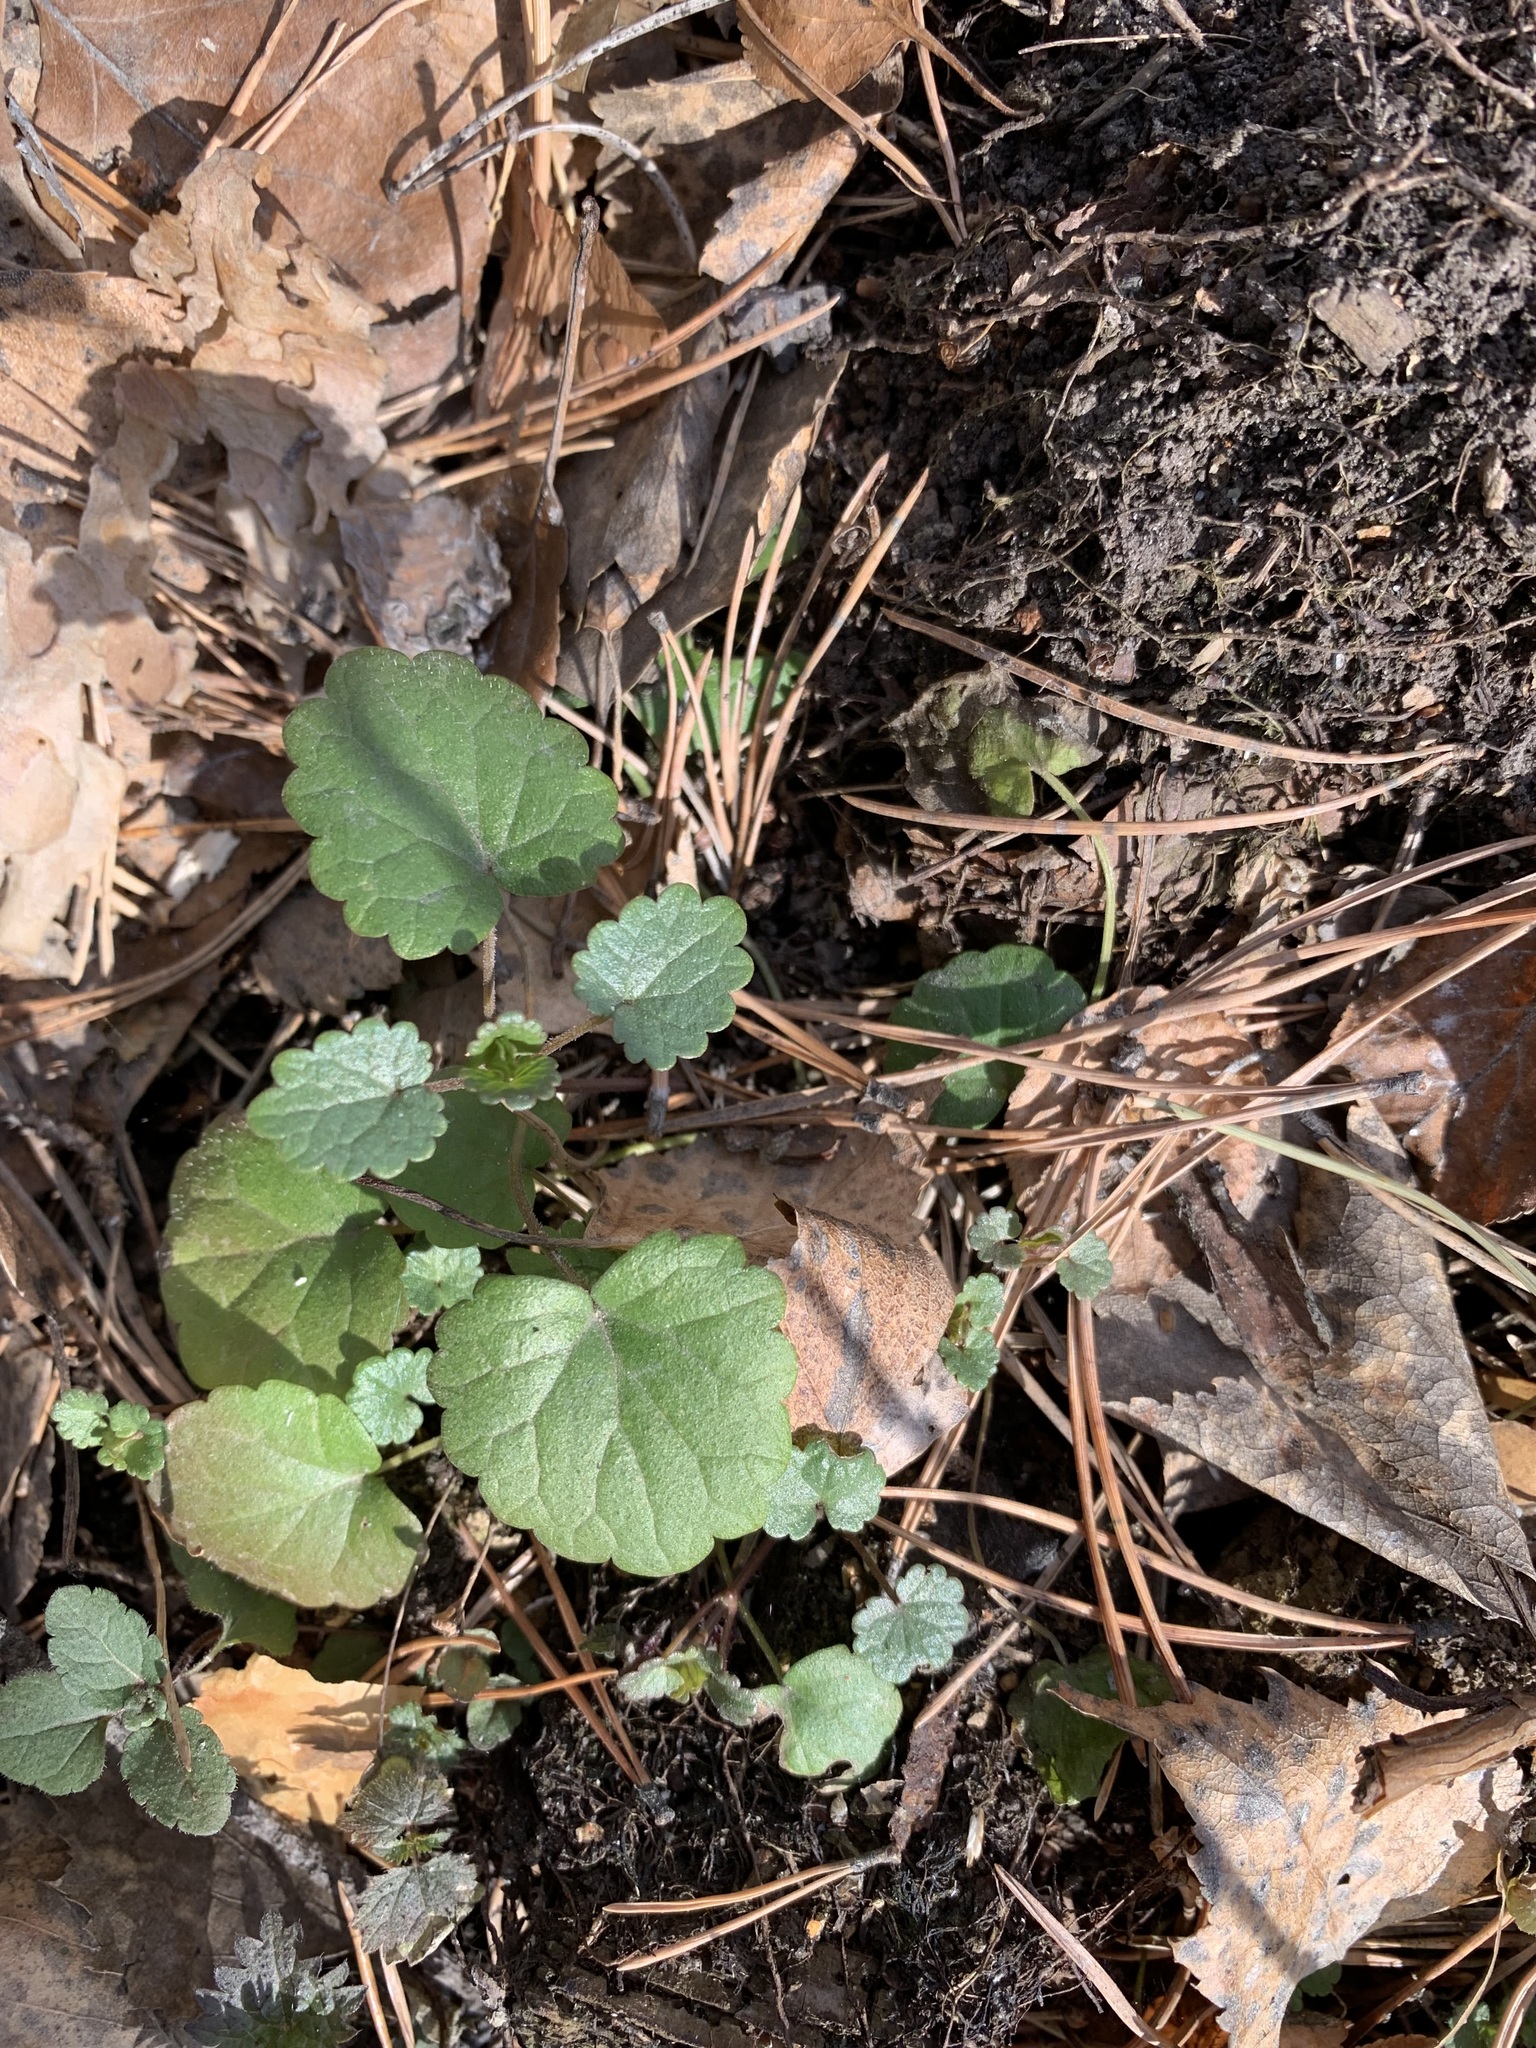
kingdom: Plantae
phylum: Tracheophyta
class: Magnoliopsida
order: Lamiales
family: Lamiaceae
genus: Glechoma
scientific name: Glechoma hederacea
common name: Ground ivy
